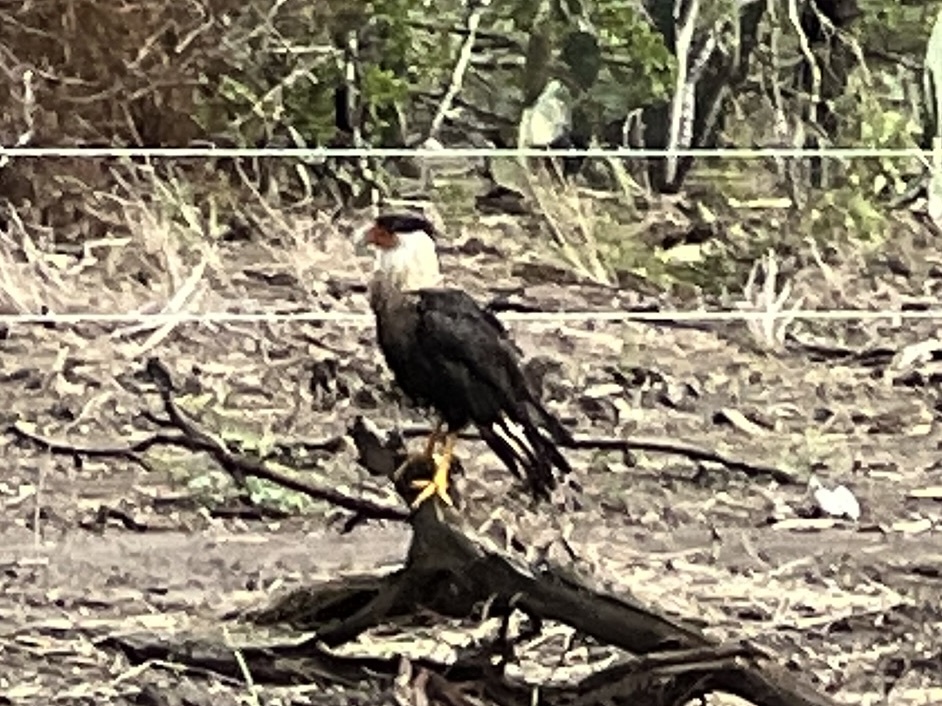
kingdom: Animalia
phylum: Chordata
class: Aves
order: Falconiformes
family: Falconidae
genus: Caracara
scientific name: Caracara plancus
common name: Southern caracara
